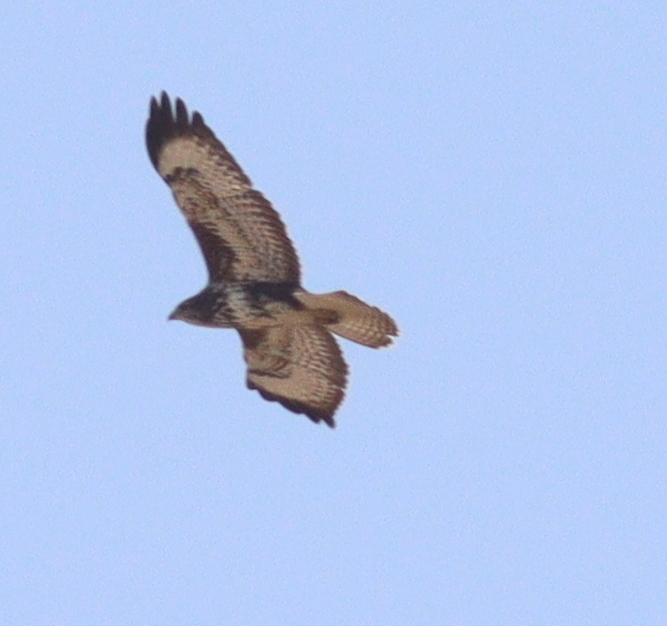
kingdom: Animalia
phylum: Chordata
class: Aves
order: Accipitriformes
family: Accipitridae
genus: Buteo
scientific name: Buteo buteo
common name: Common buzzard
